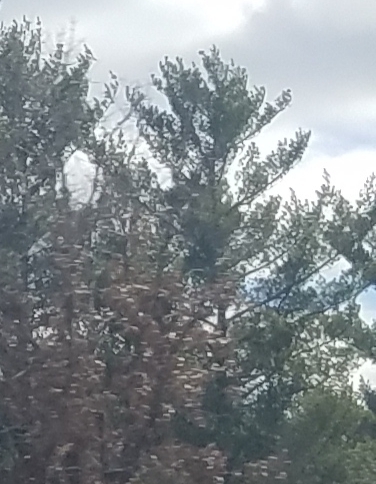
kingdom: Plantae
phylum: Tracheophyta
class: Pinopsida
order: Pinales
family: Pinaceae
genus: Pinus
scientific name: Pinus strobus
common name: Weymouth pine
